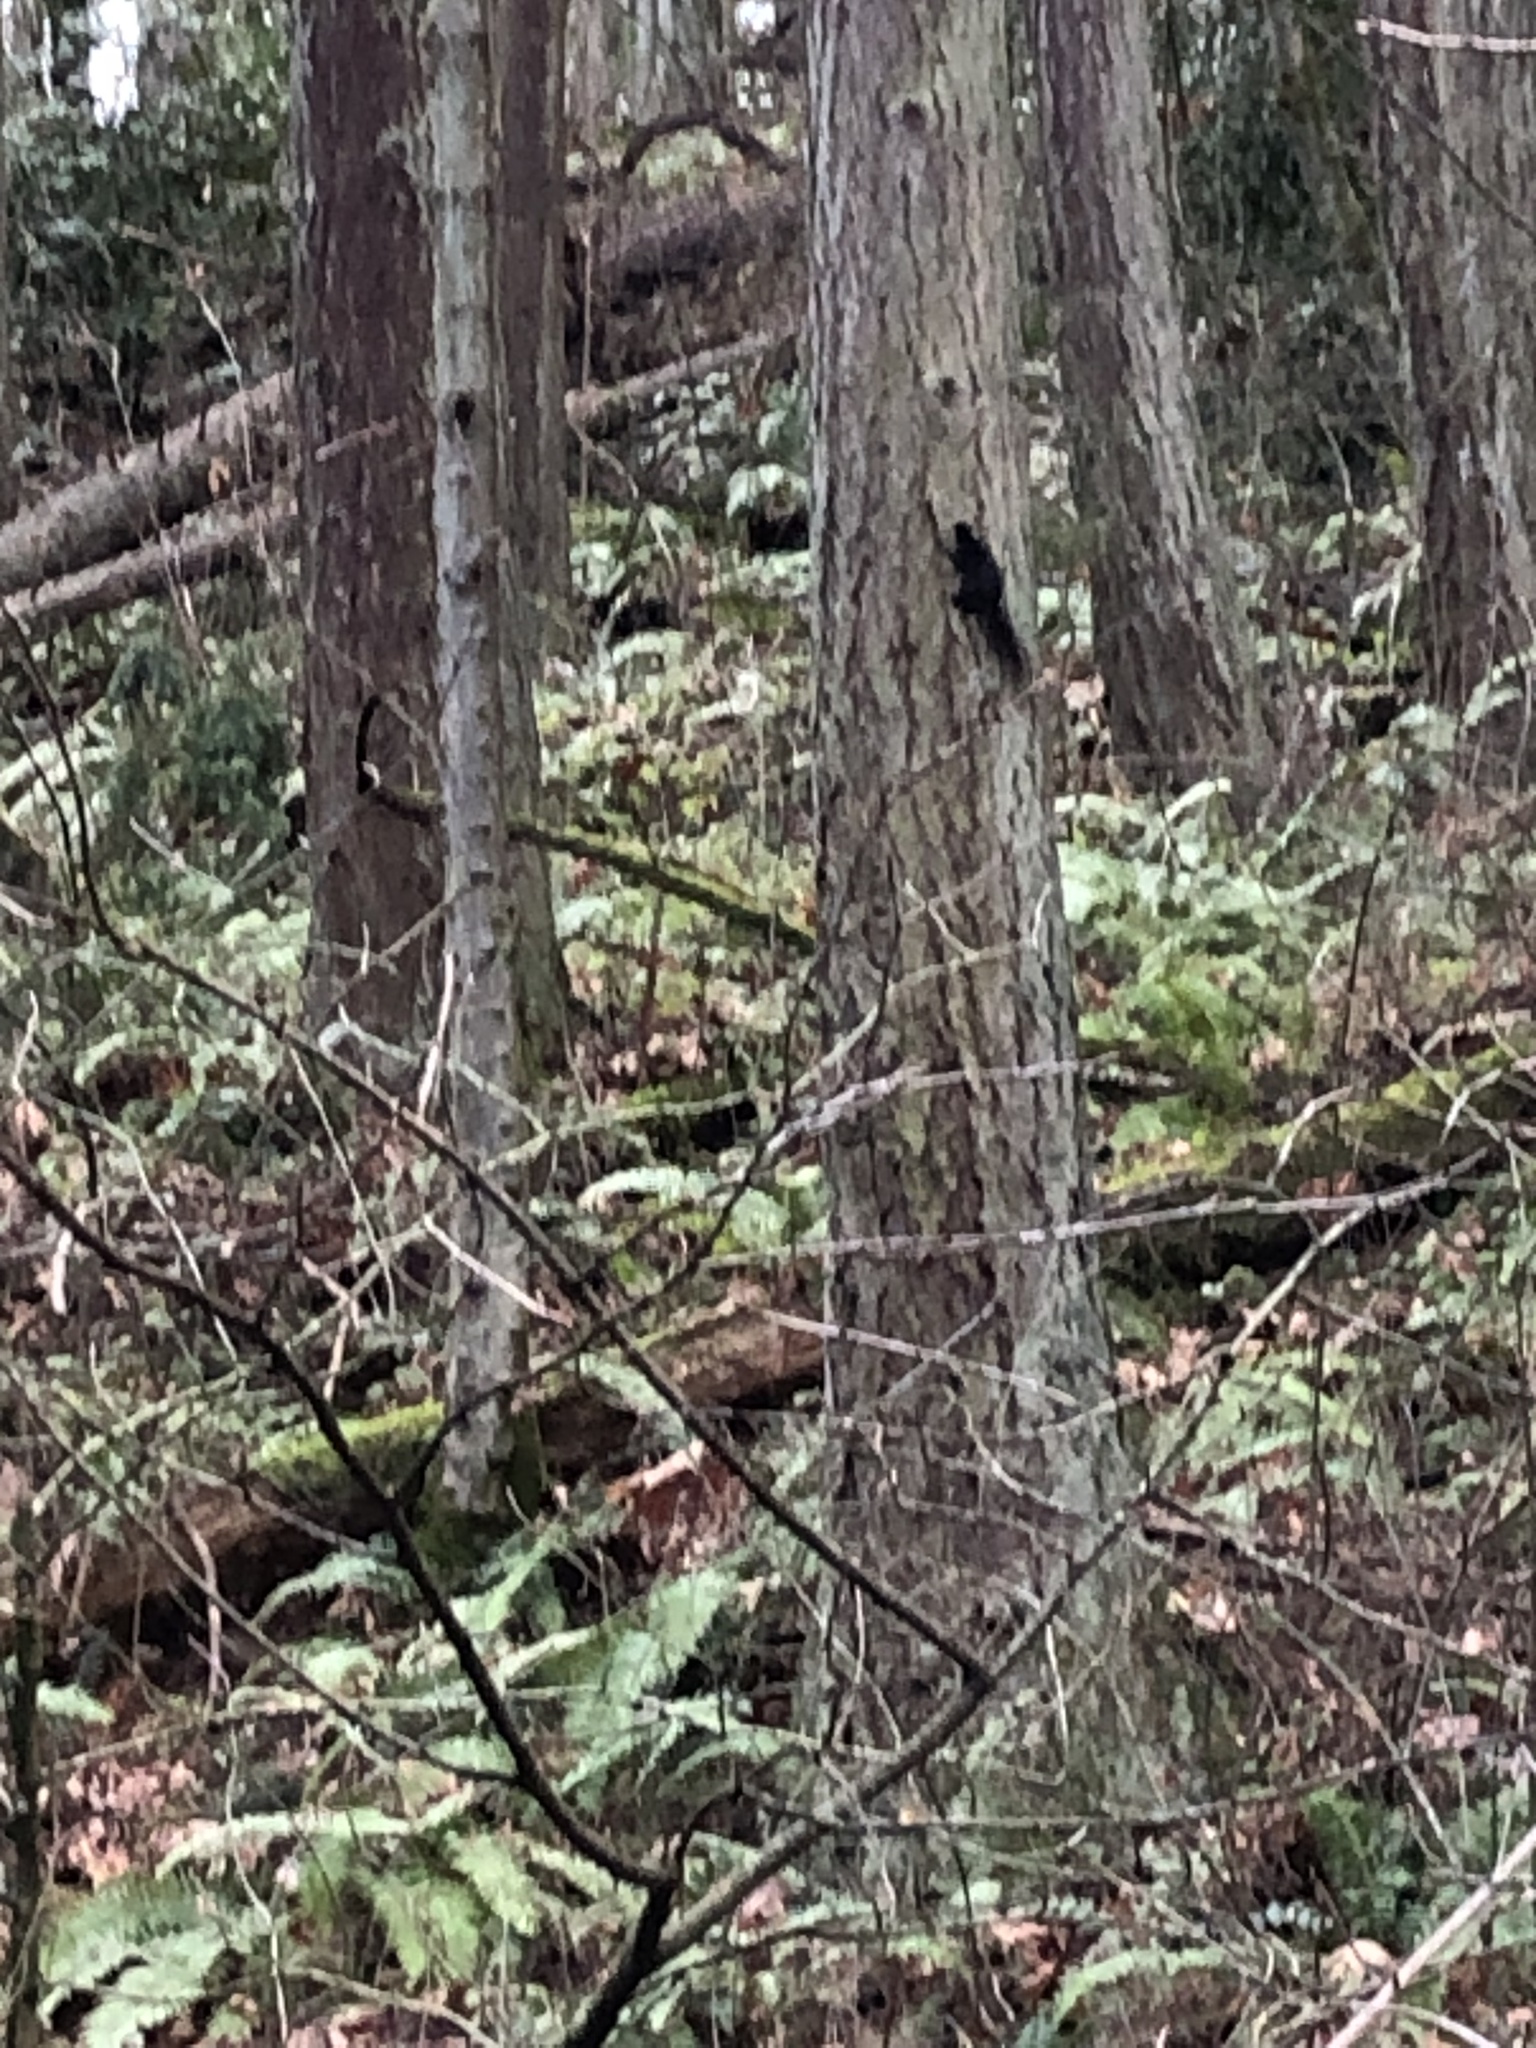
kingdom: Animalia
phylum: Chordata
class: Mammalia
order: Rodentia
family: Sciuridae
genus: Sciurus
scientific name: Sciurus carolinensis
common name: Eastern gray squirrel
